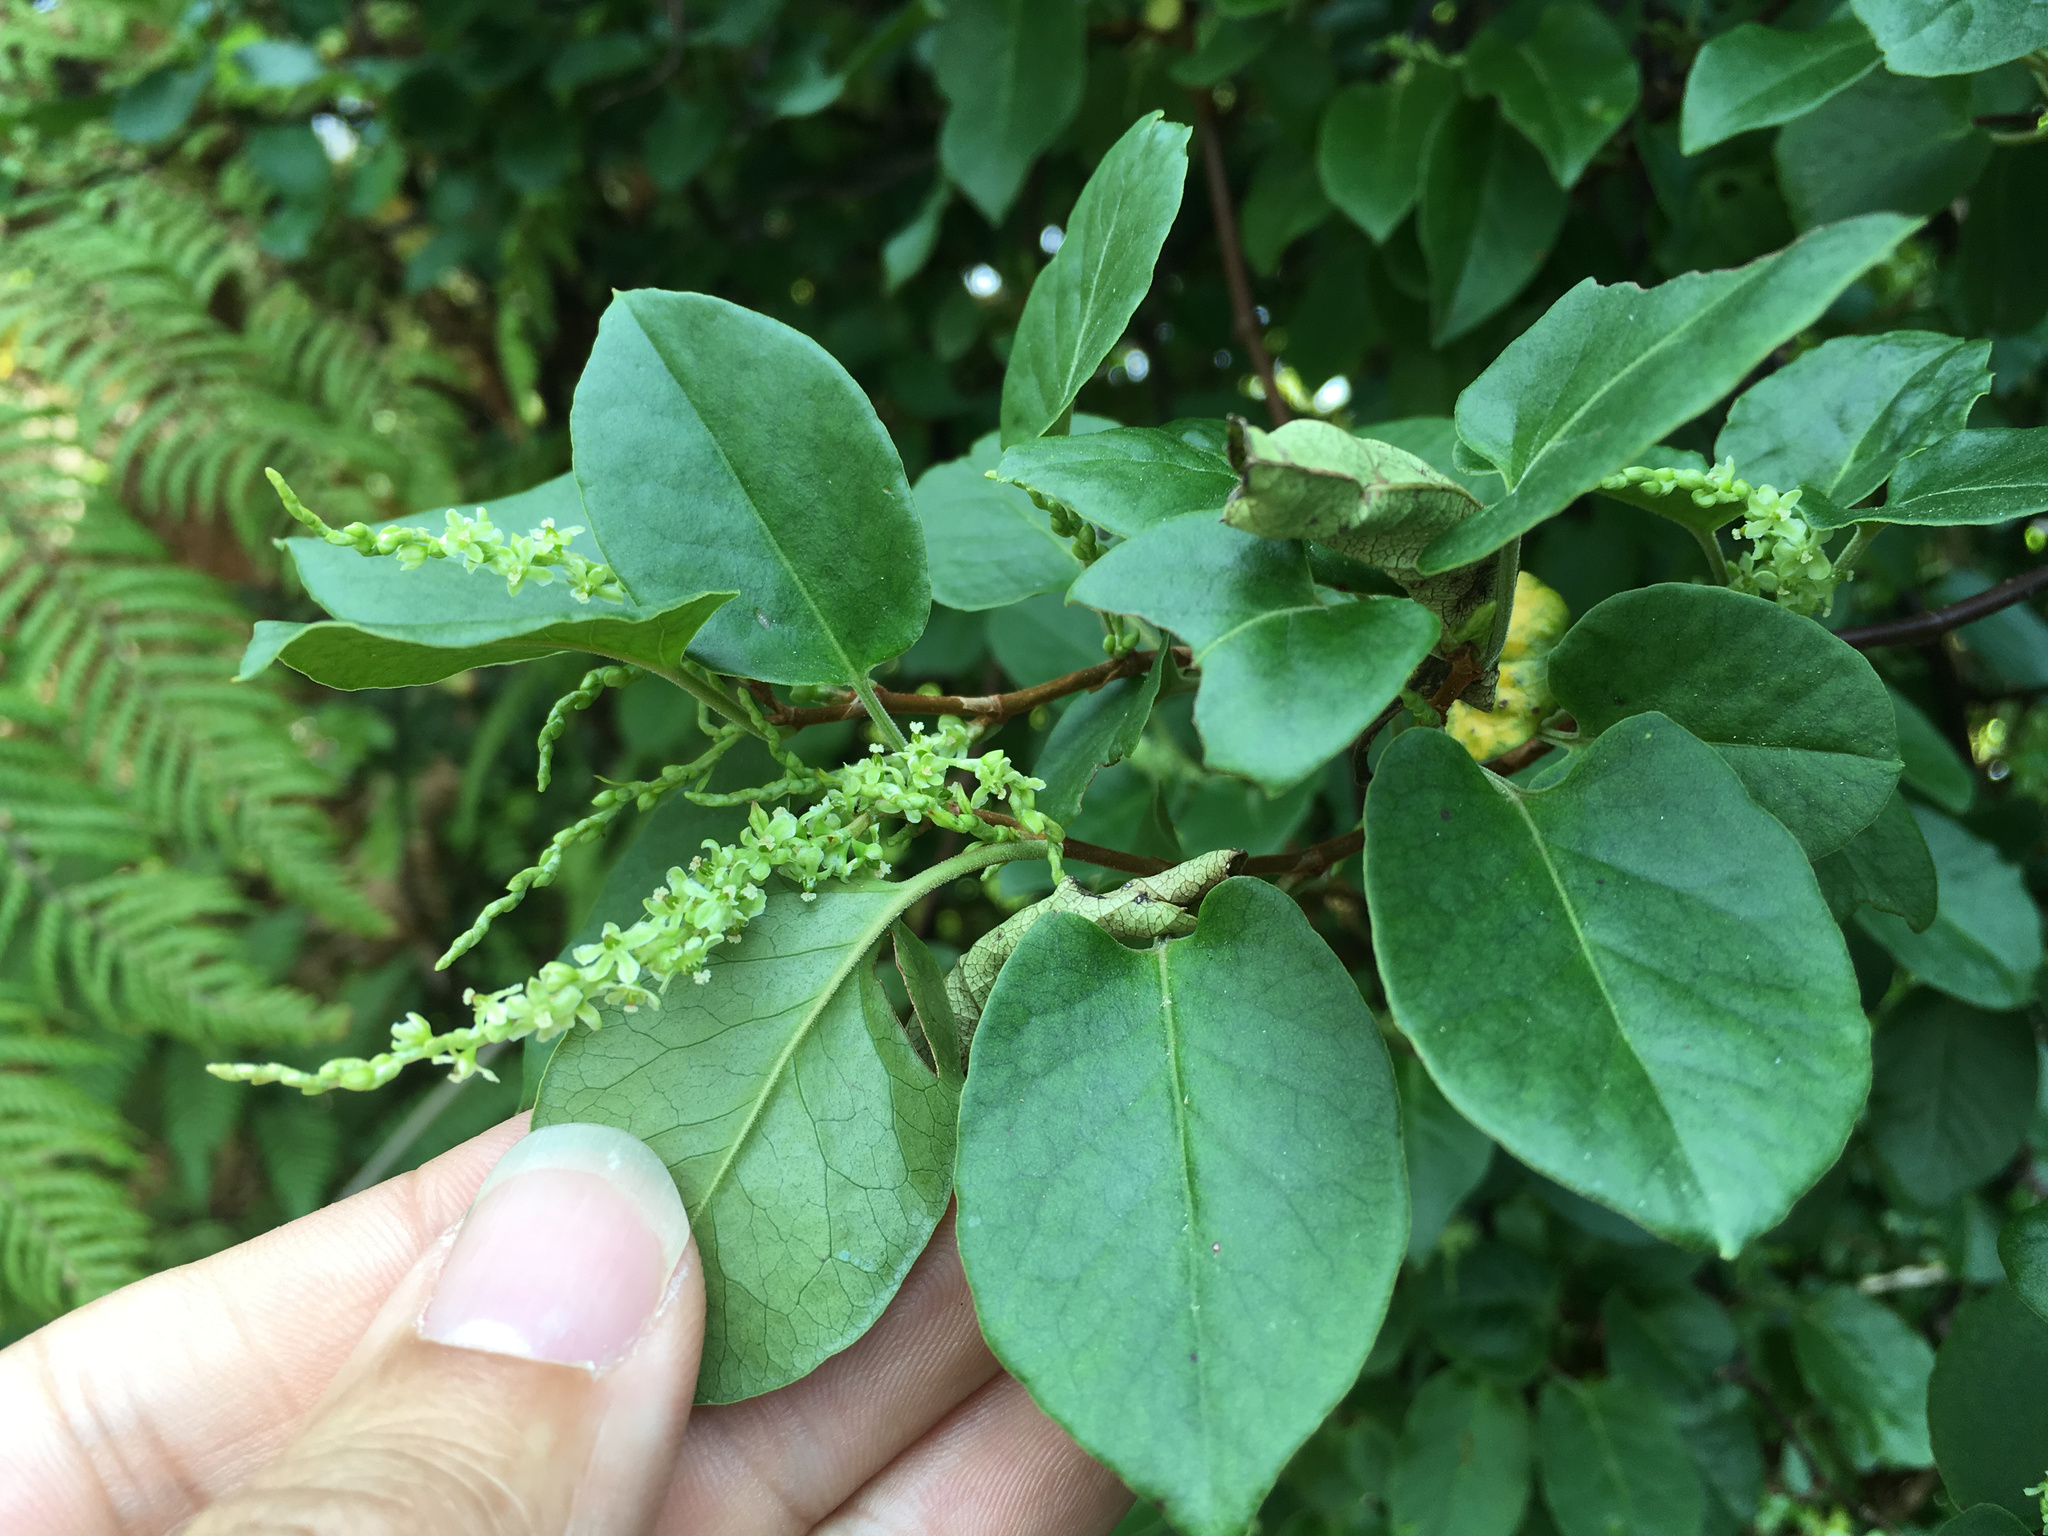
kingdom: Plantae
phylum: Tracheophyta
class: Magnoliopsida
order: Caryophyllales
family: Polygonaceae
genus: Muehlenbeckia
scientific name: Muehlenbeckia australis
